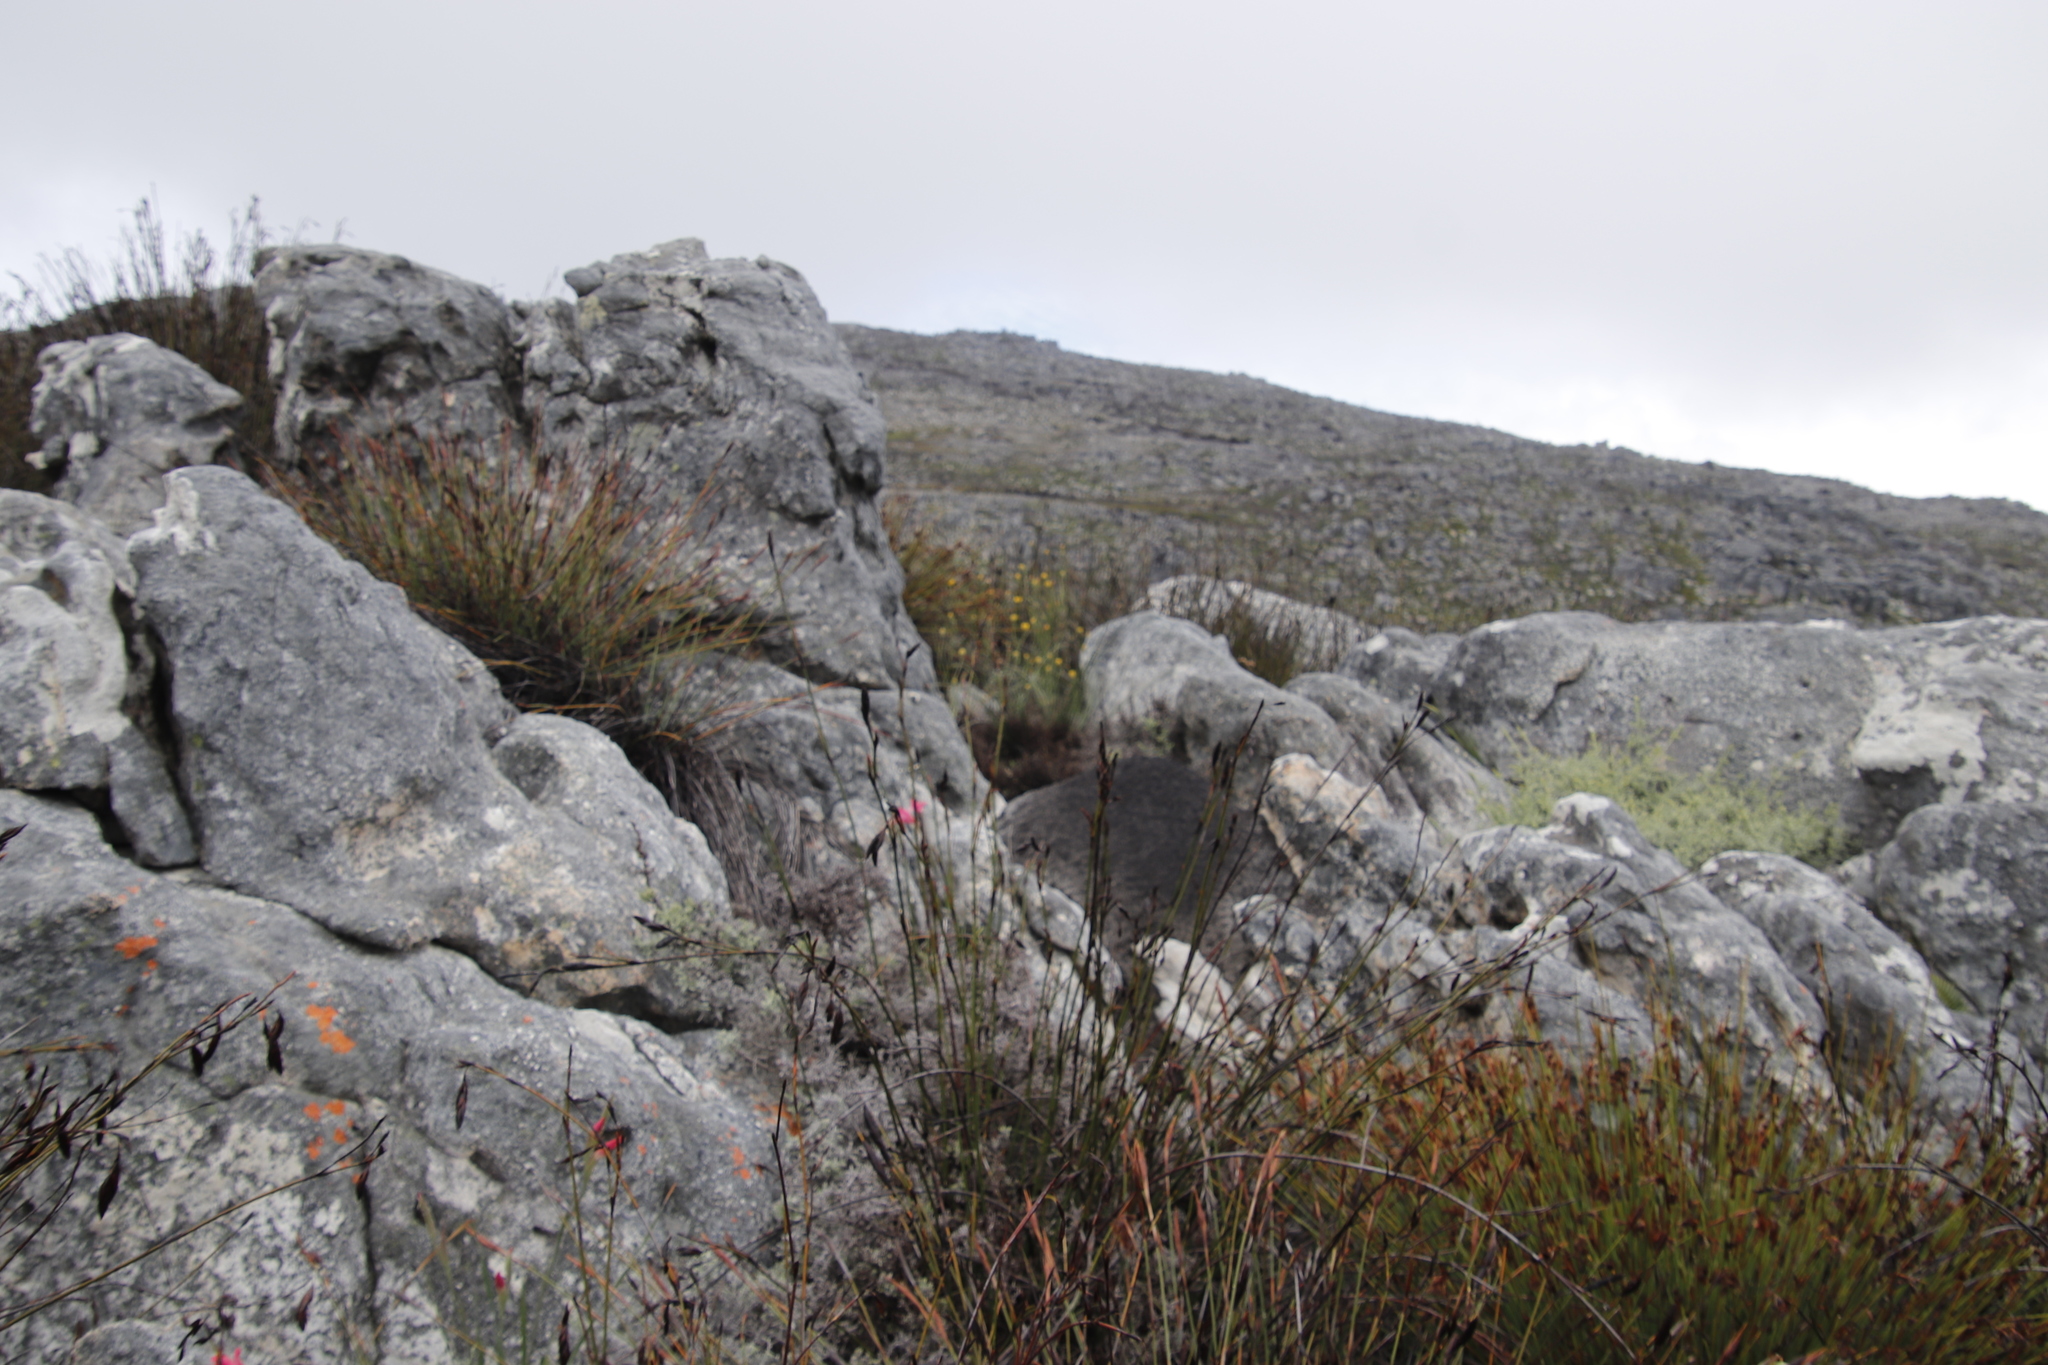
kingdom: Plantae
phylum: Tracheophyta
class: Magnoliopsida
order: Asterales
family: Asteraceae
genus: Hypochaeris
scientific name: Hypochaeris radicata
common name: Flatweed
